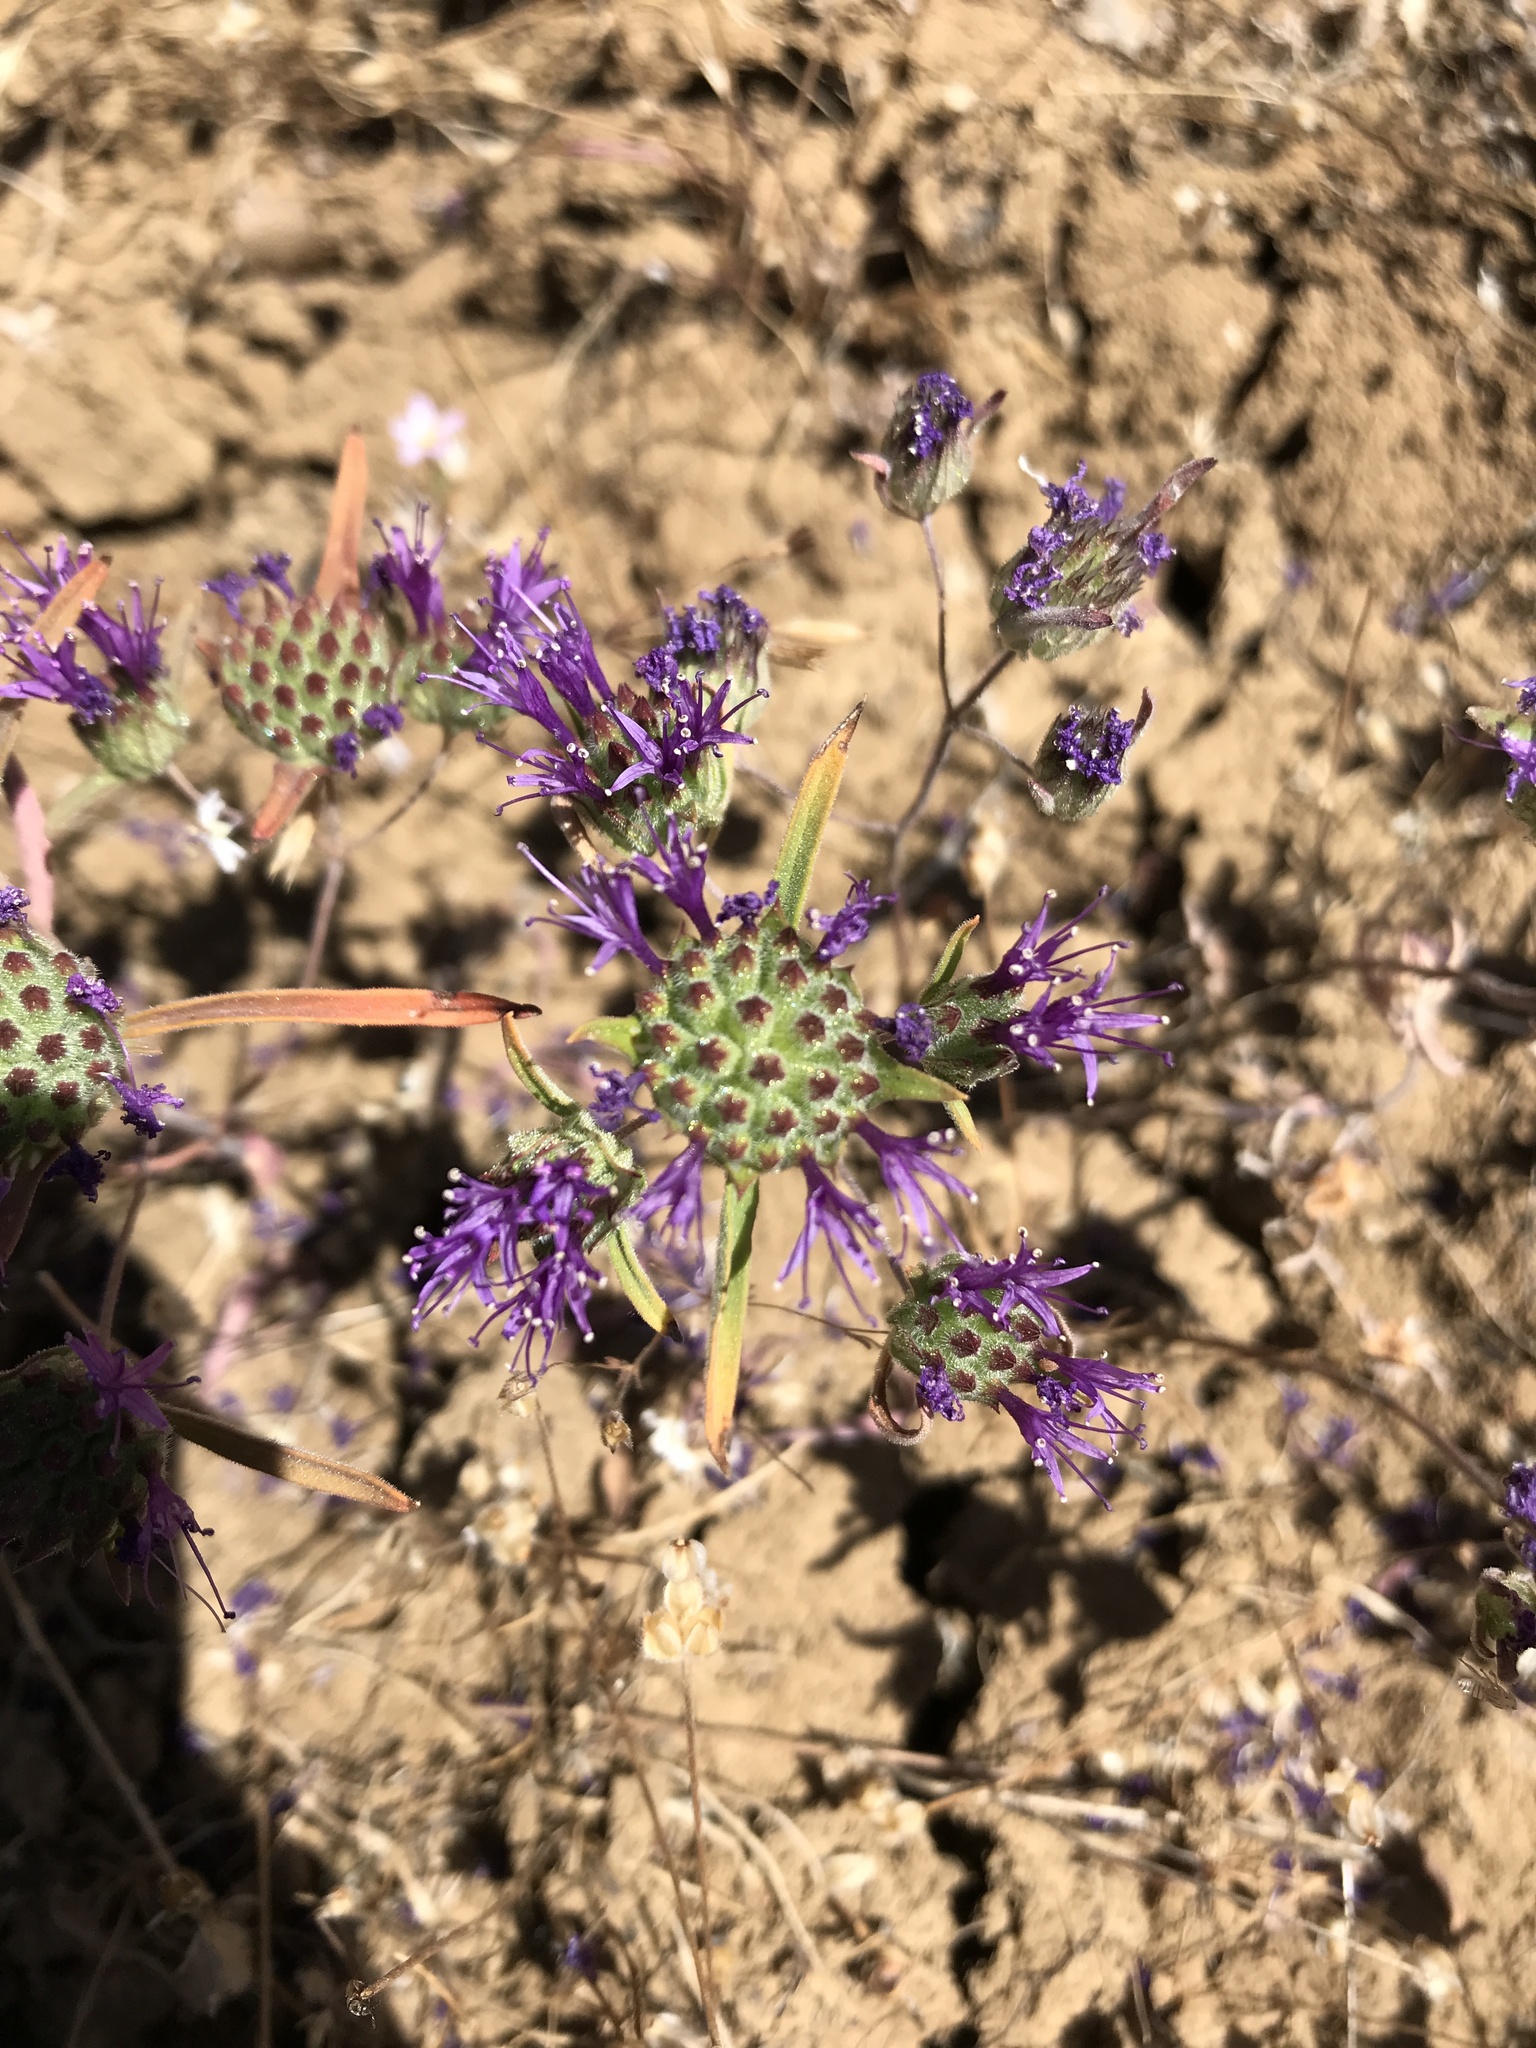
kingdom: Plantae
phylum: Tracheophyta
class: Magnoliopsida
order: Lamiales
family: Lamiaceae
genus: Monardella
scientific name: Monardella douglasii
